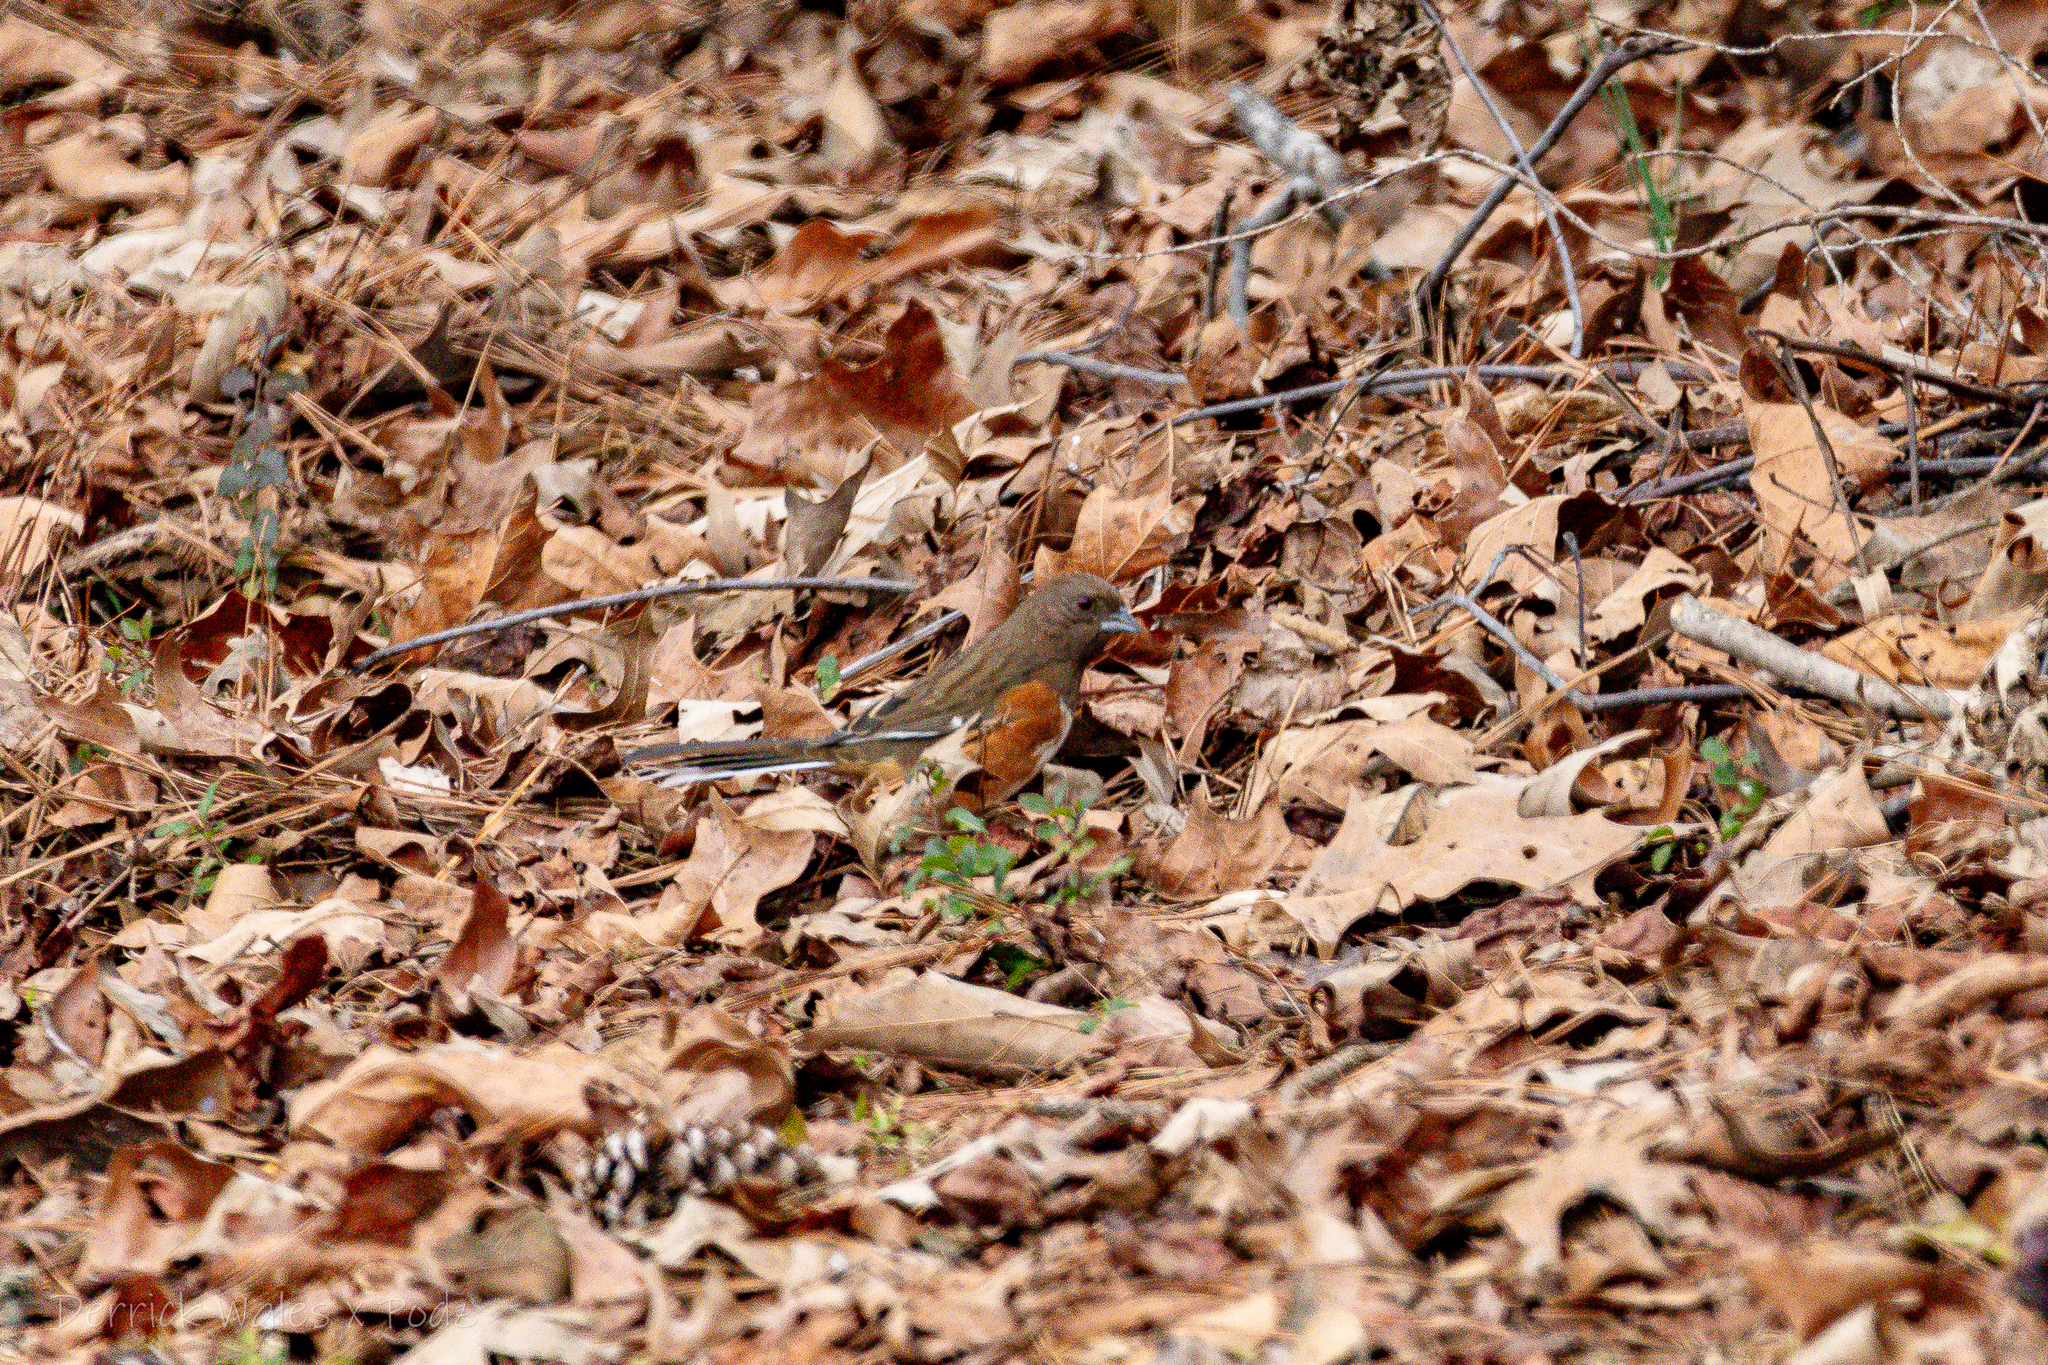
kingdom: Animalia
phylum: Chordata
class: Aves
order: Passeriformes
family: Passerellidae
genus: Pipilo
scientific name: Pipilo erythrophthalmus
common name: Eastern towhee
